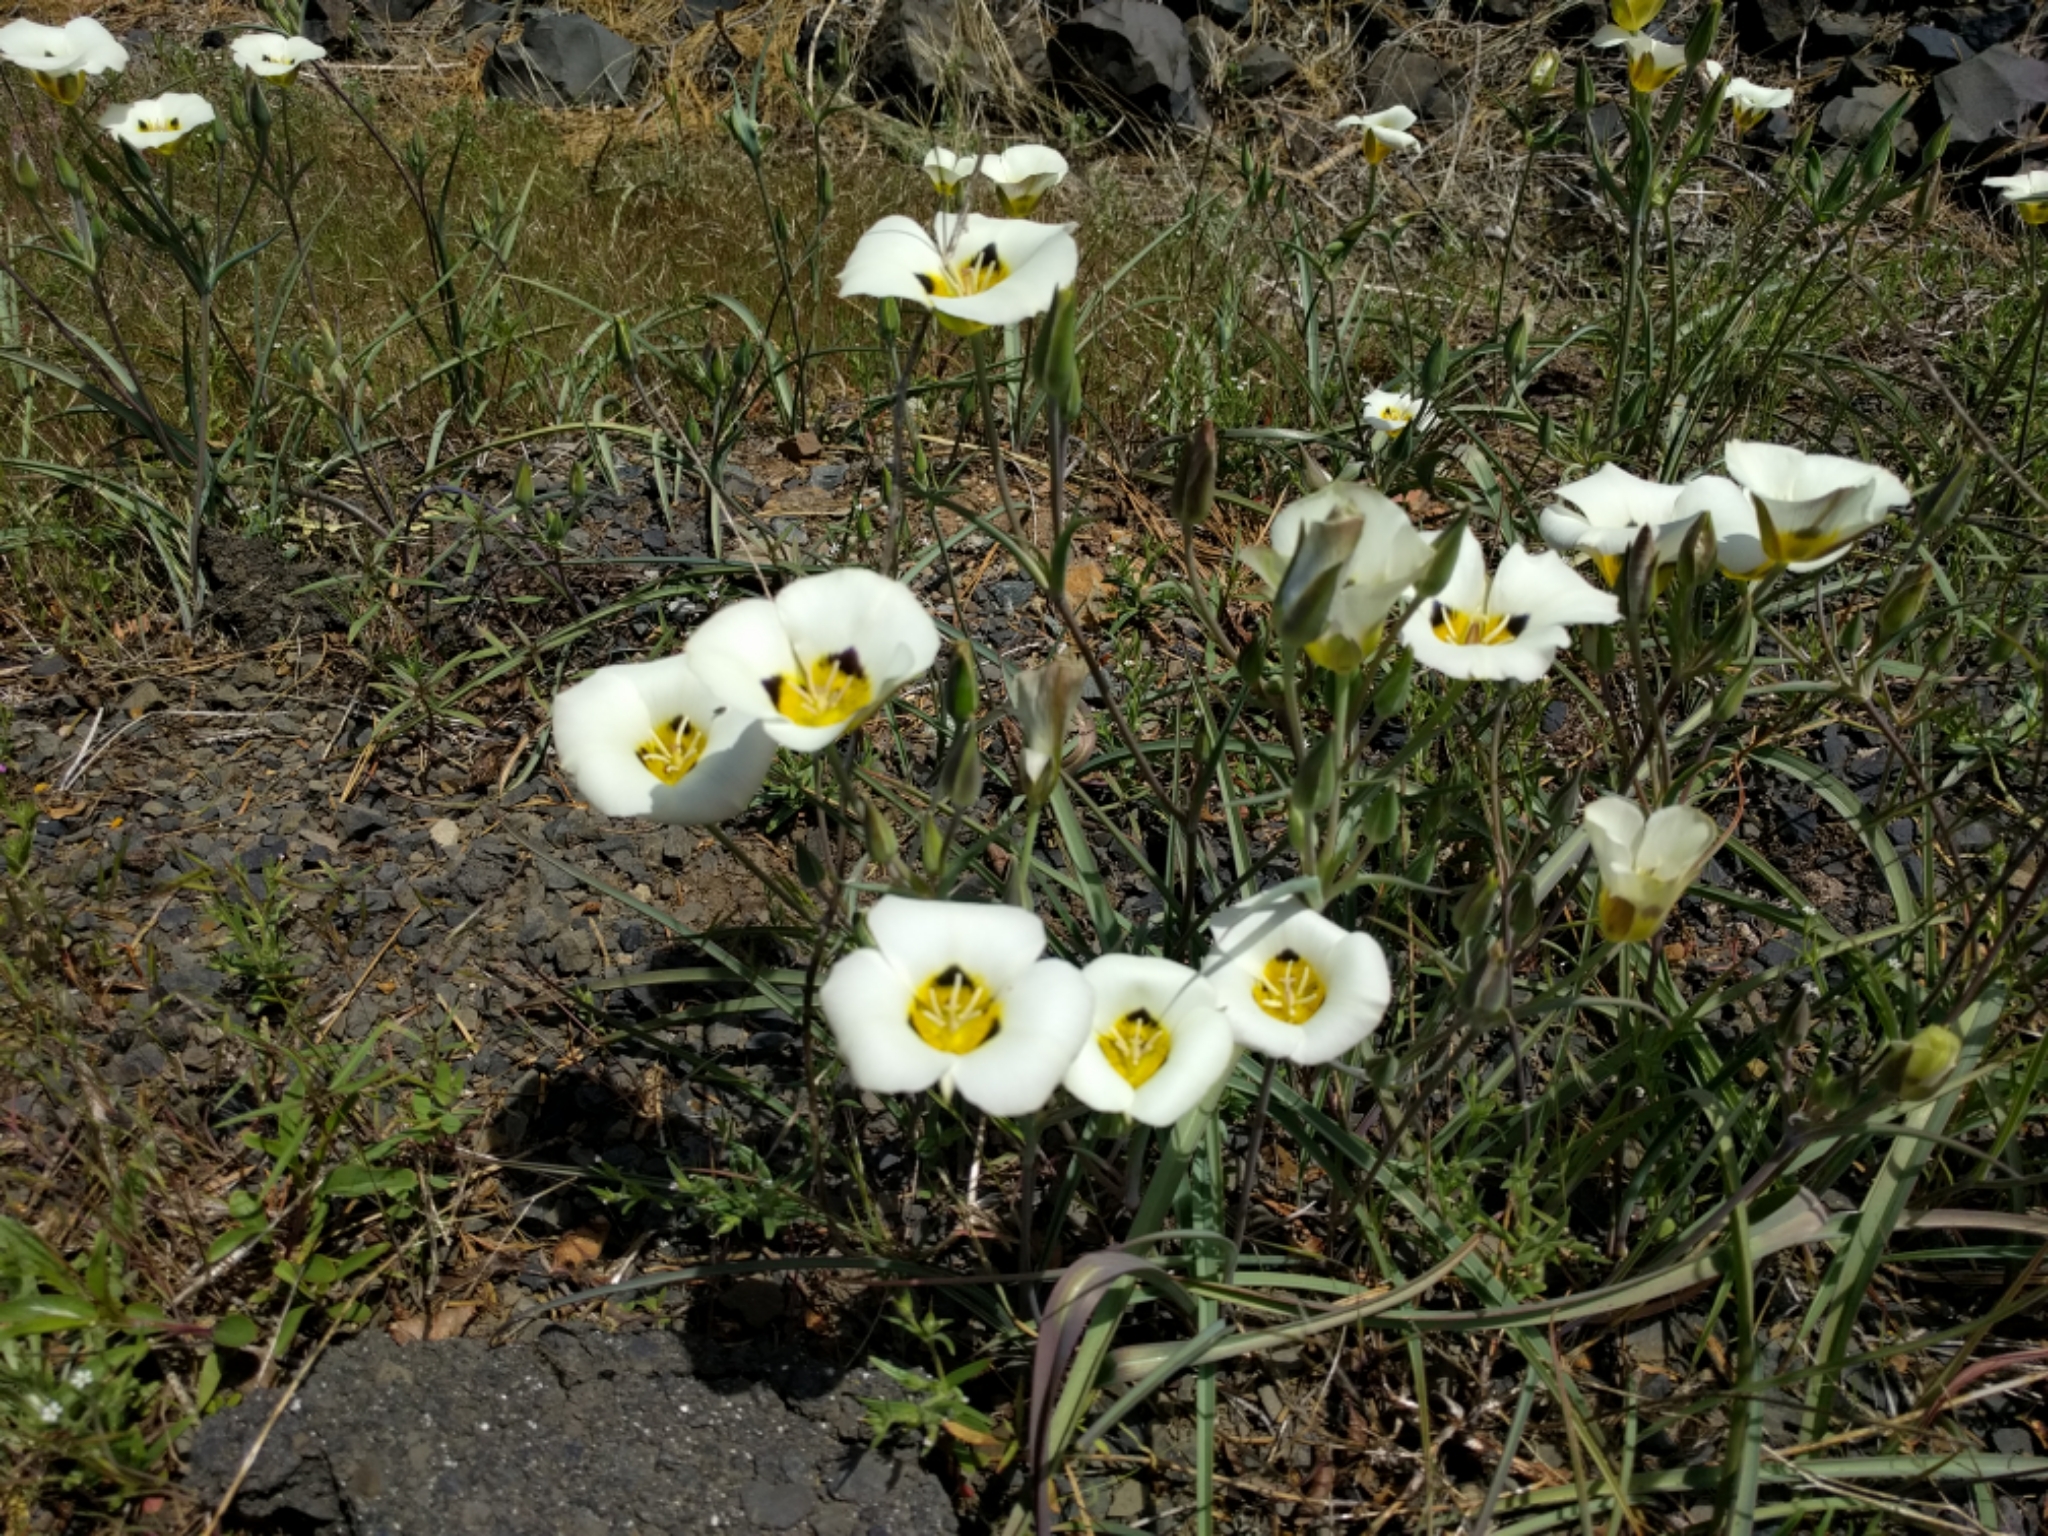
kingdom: Plantae
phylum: Tracheophyta
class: Liliopsida
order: Liliales
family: Liliaceae
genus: Calochortus
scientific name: Calochortus leichtlinii
